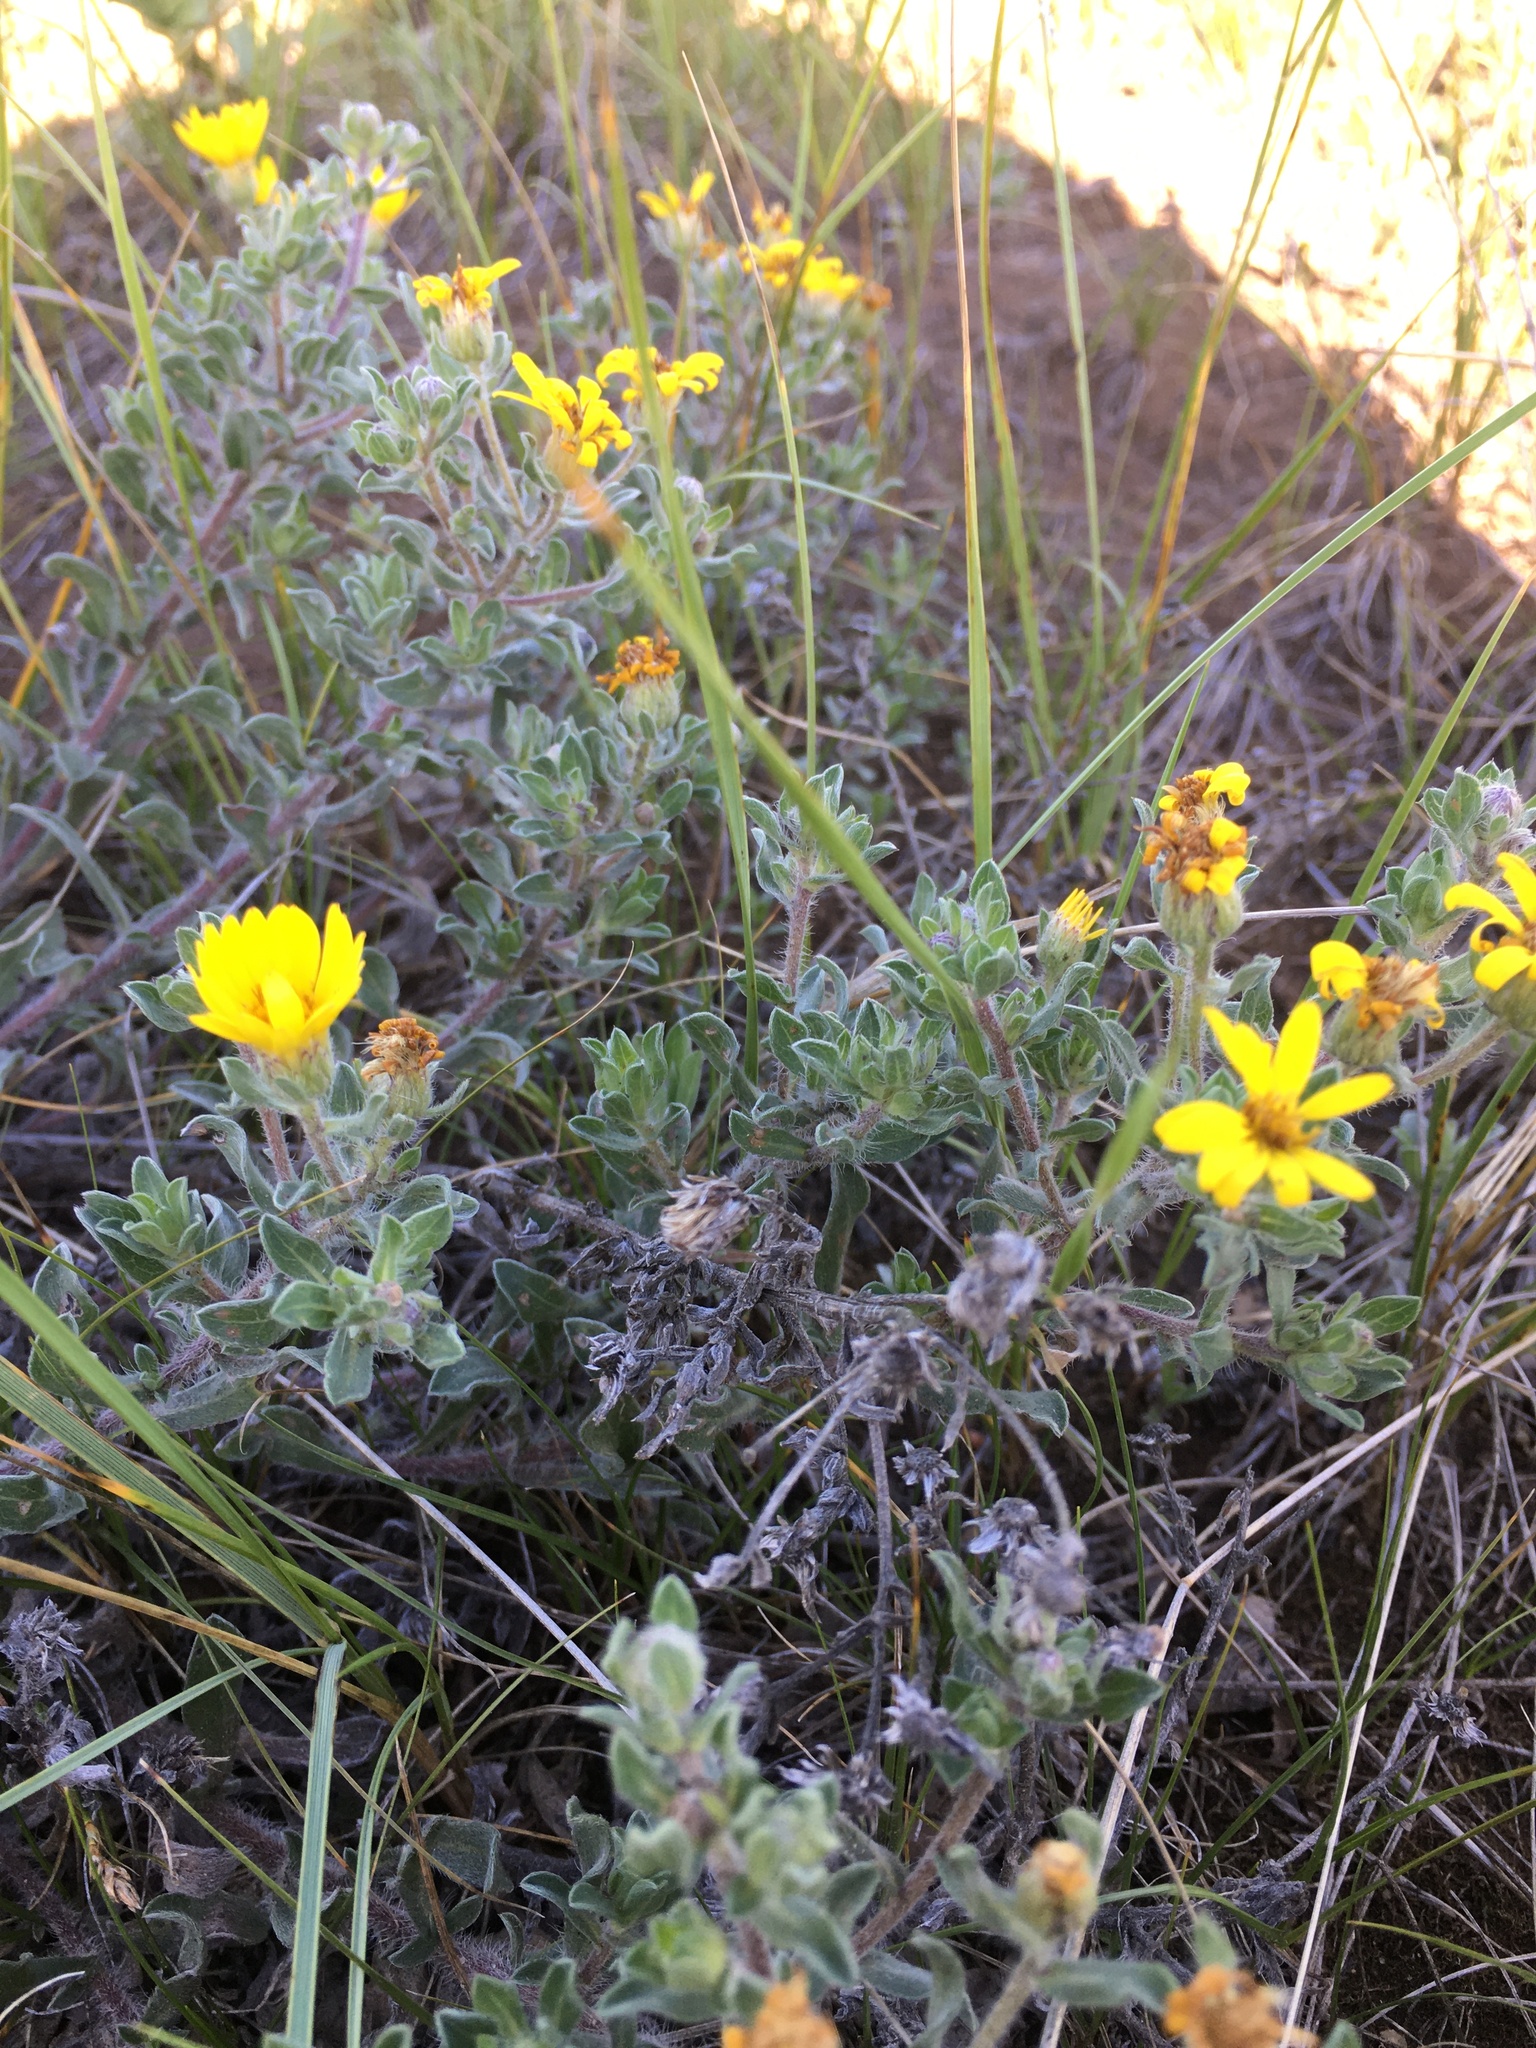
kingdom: Plantae
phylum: Tracheophyta
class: Magnoliopsida
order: Asterales
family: Asteraceae
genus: Heterotheca
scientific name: Heterotheca villosa
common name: Hairy false goldenaster
